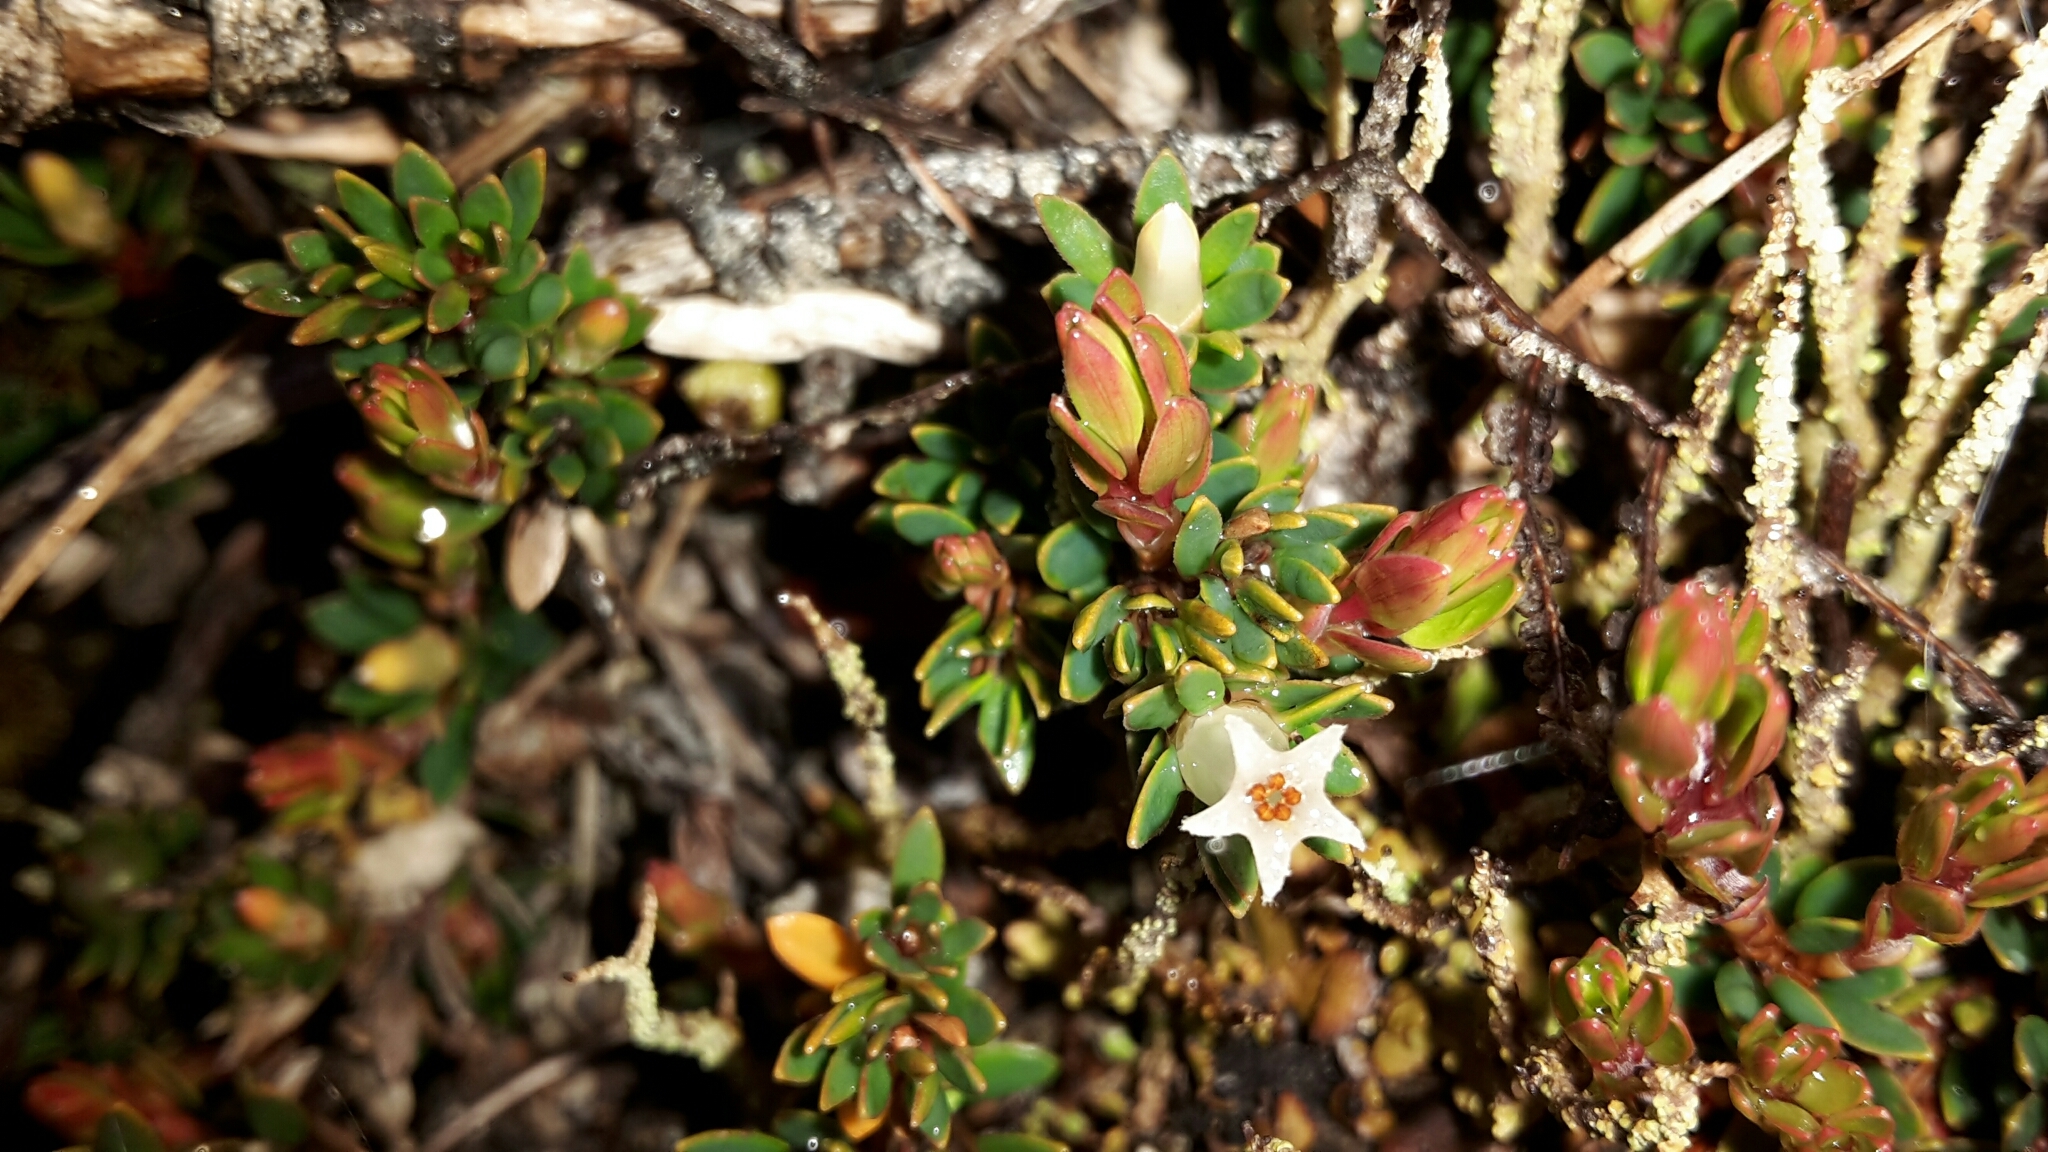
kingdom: Plantae
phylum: Tracheophyta
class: Magnoliopsida
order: Ericales
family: Ericaceae
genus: Pentachondra
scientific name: Pentachondra pumila
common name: Carpet-heath
